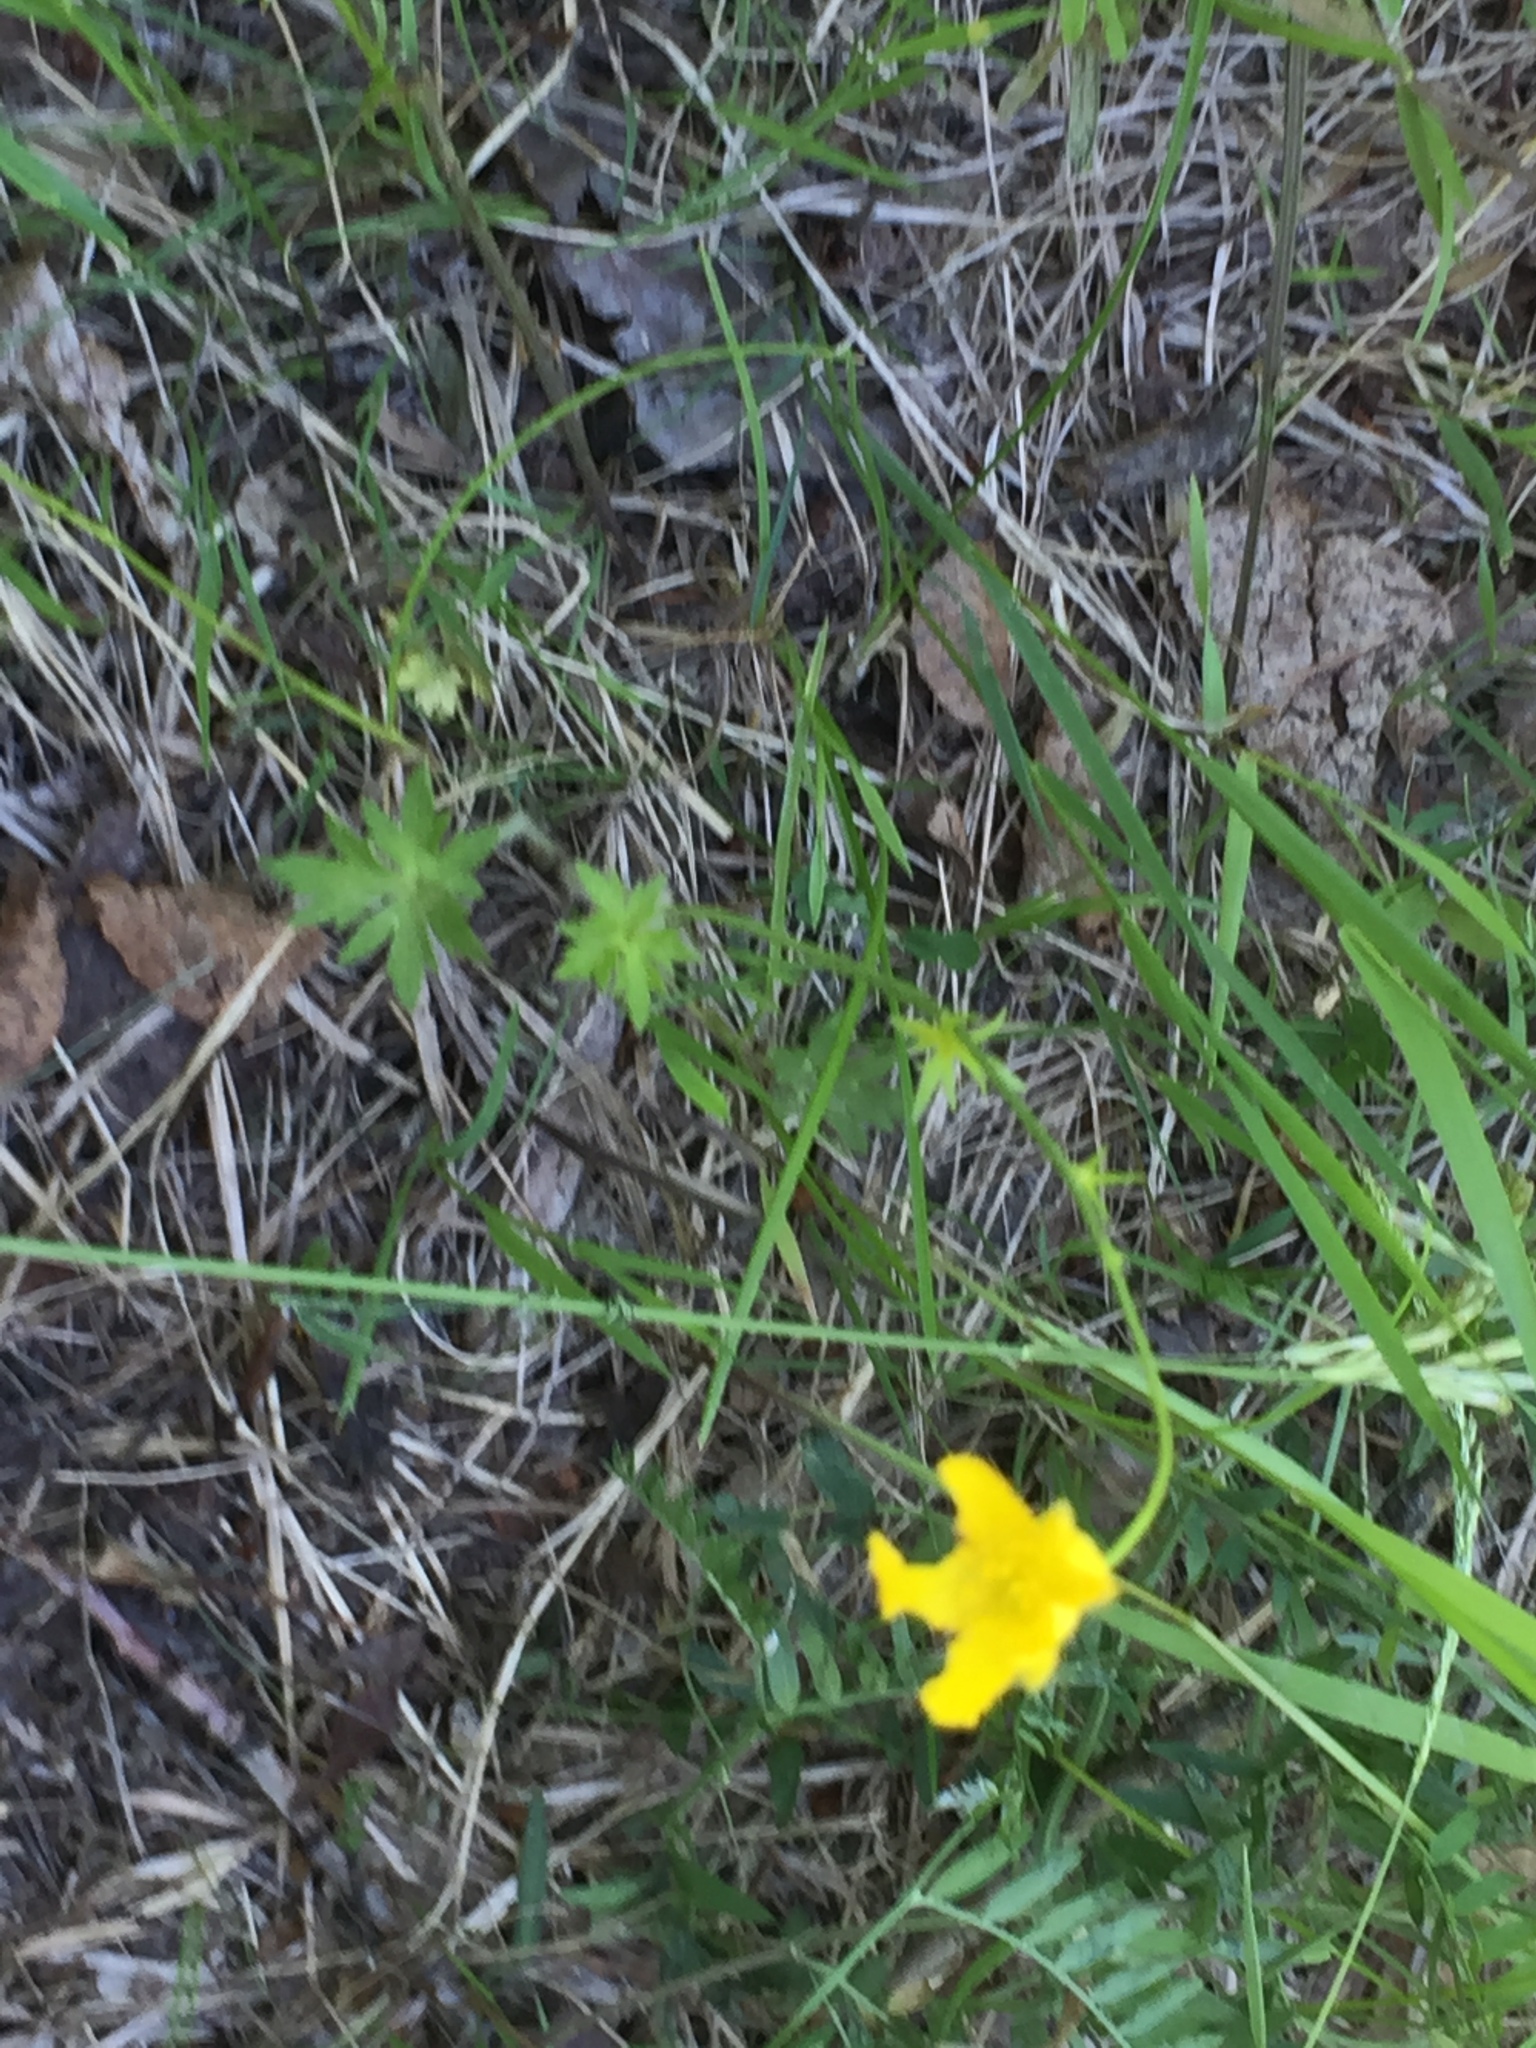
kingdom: Plantae
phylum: Tracheophyta
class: Magnoliopsida
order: Ranunculales
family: Ranunculaceae
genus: Ranunculus
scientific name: Ranunculus acris
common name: Meadow buttercup
